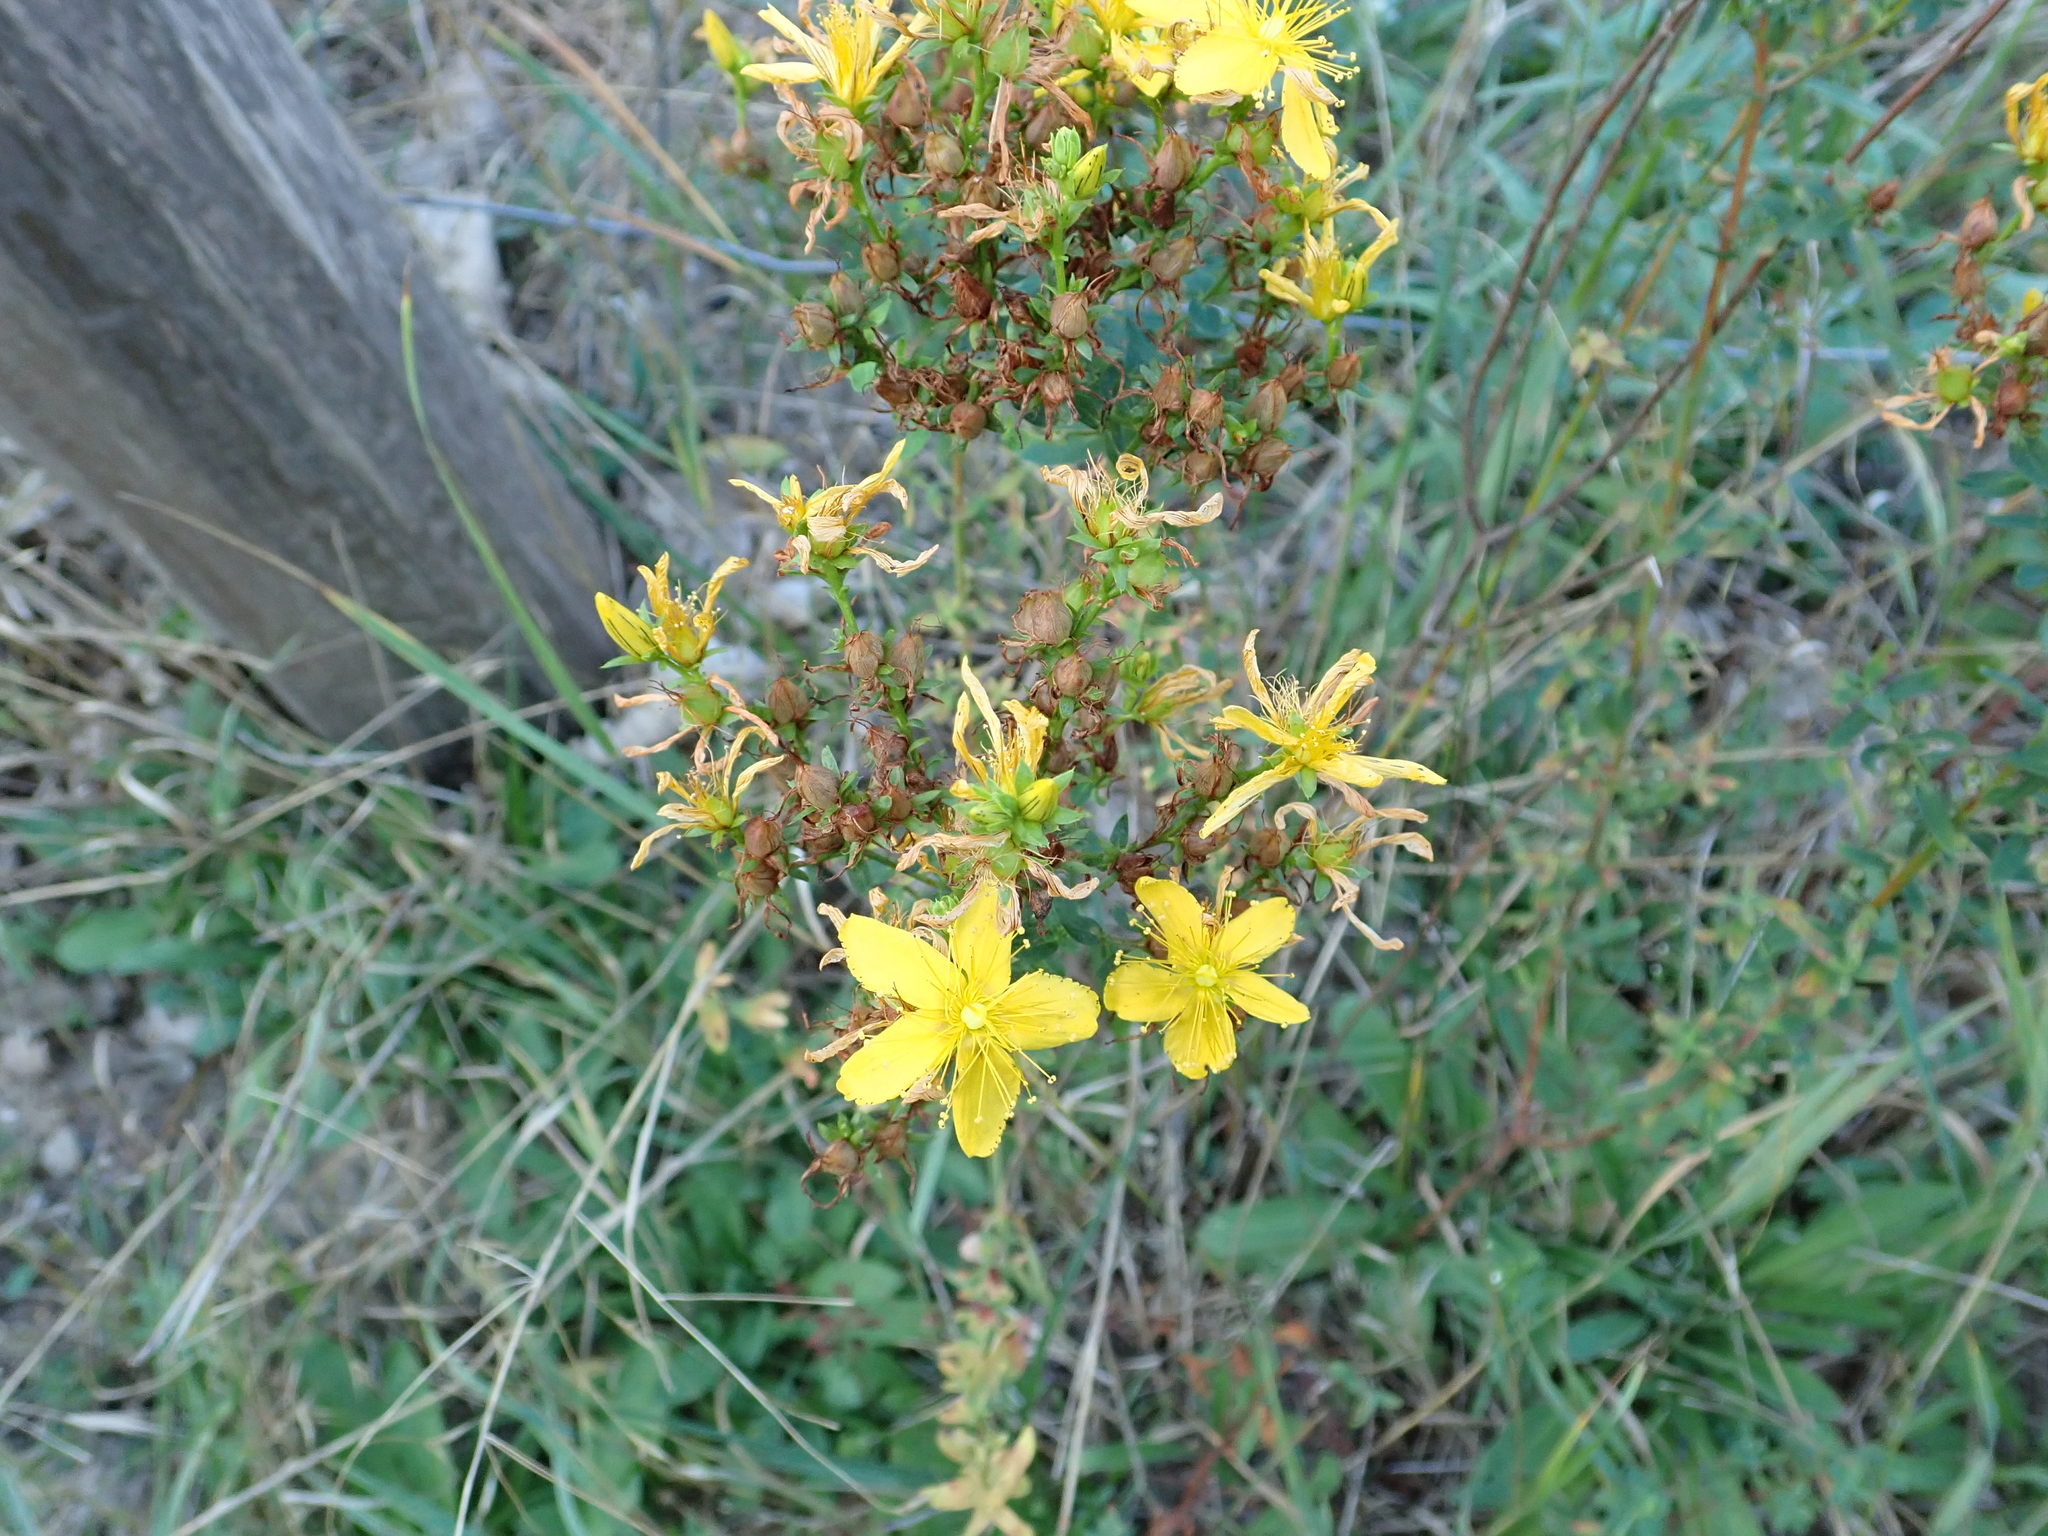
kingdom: Plantae
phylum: Tracheophyta
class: Magnoliopsida
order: Malpighiales
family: Hypericaceae
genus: Hypericum
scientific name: Hypericum perforatum
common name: Common st. johnswort
